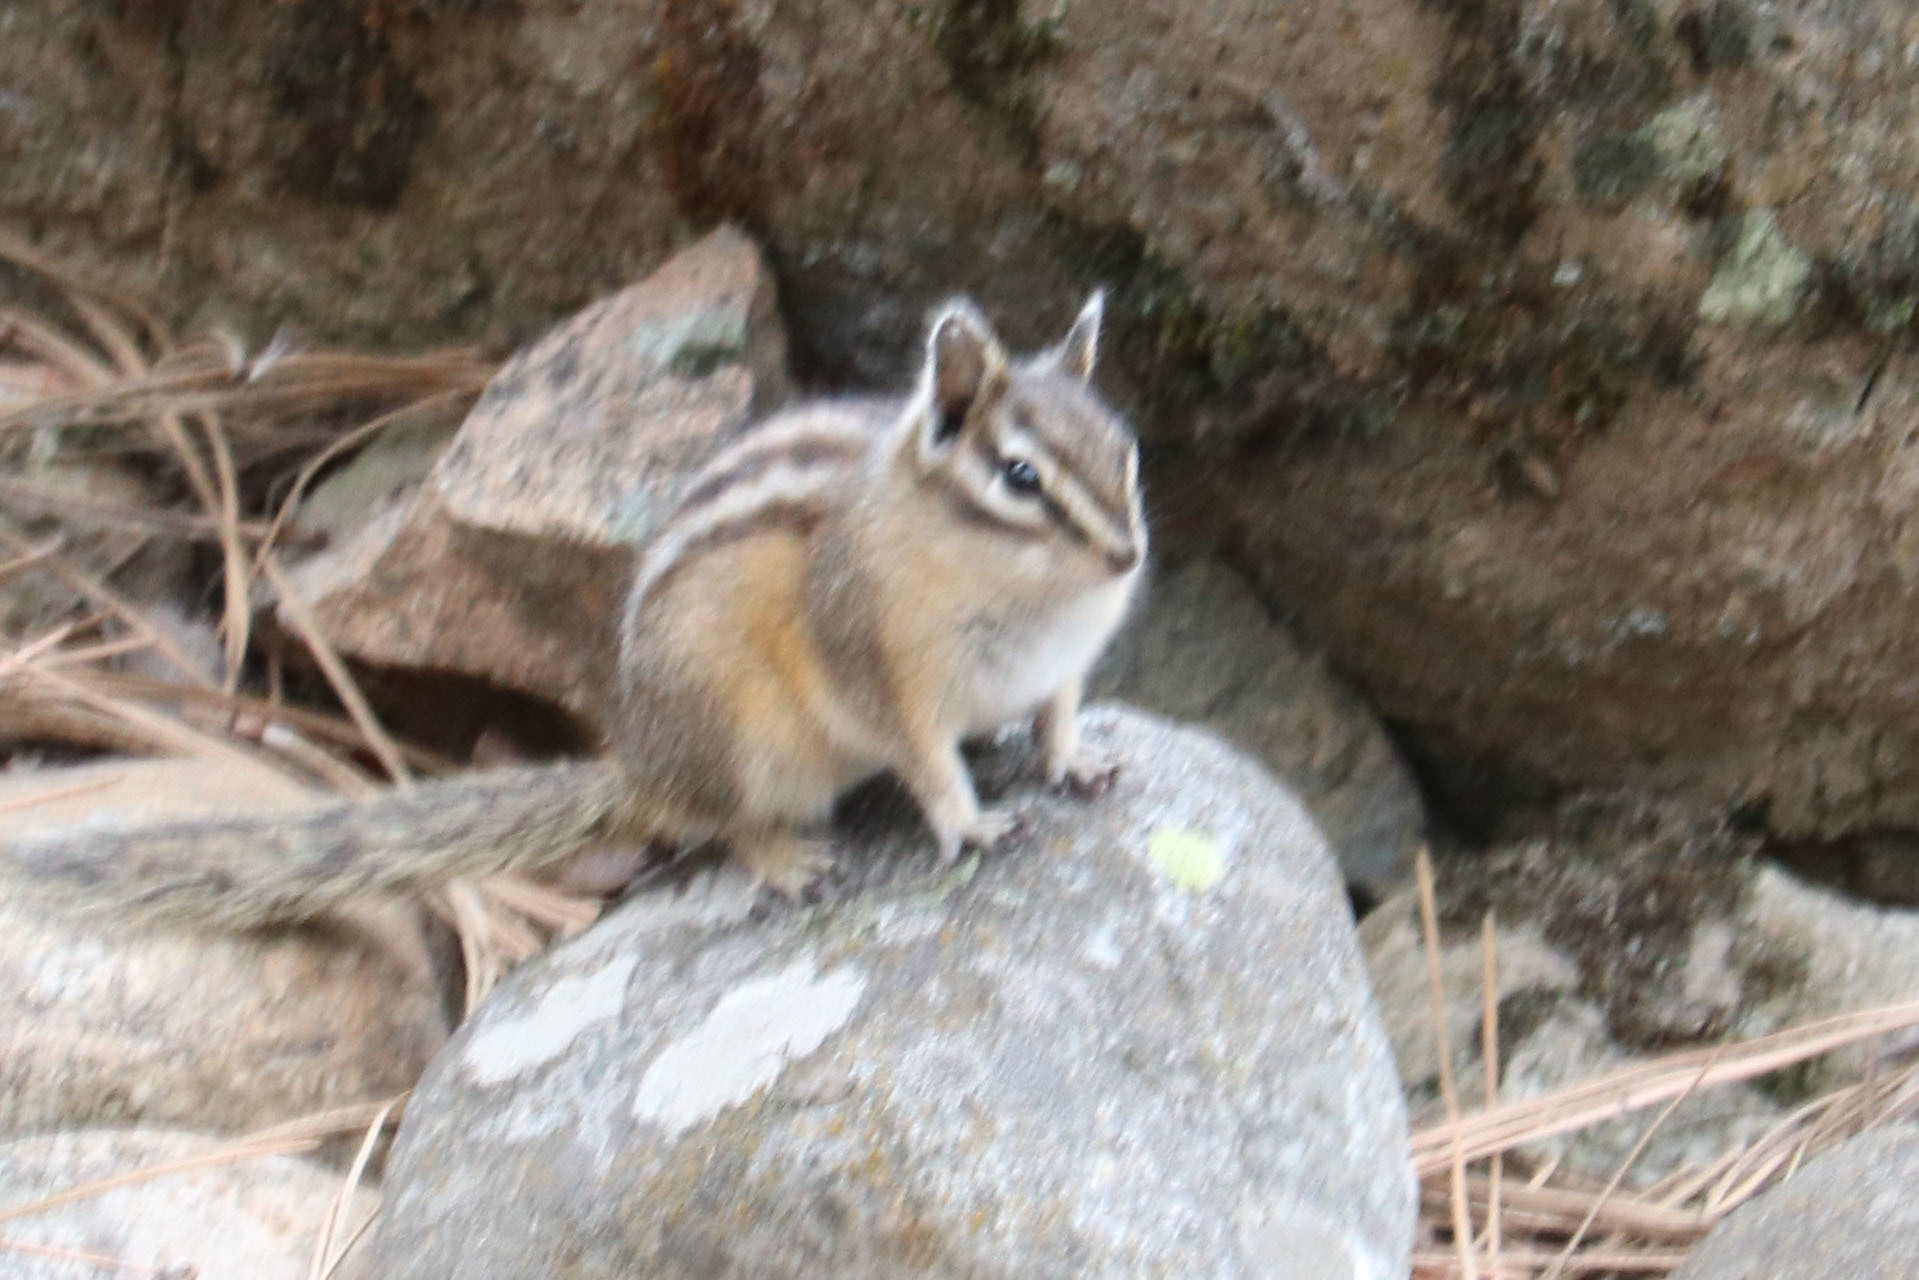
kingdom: Animalia
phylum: Chordata
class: Mammalia
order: Rodentia
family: Sciuridae
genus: Tamias
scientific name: Tamias amoenus
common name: Yellow-pine chipmunk
